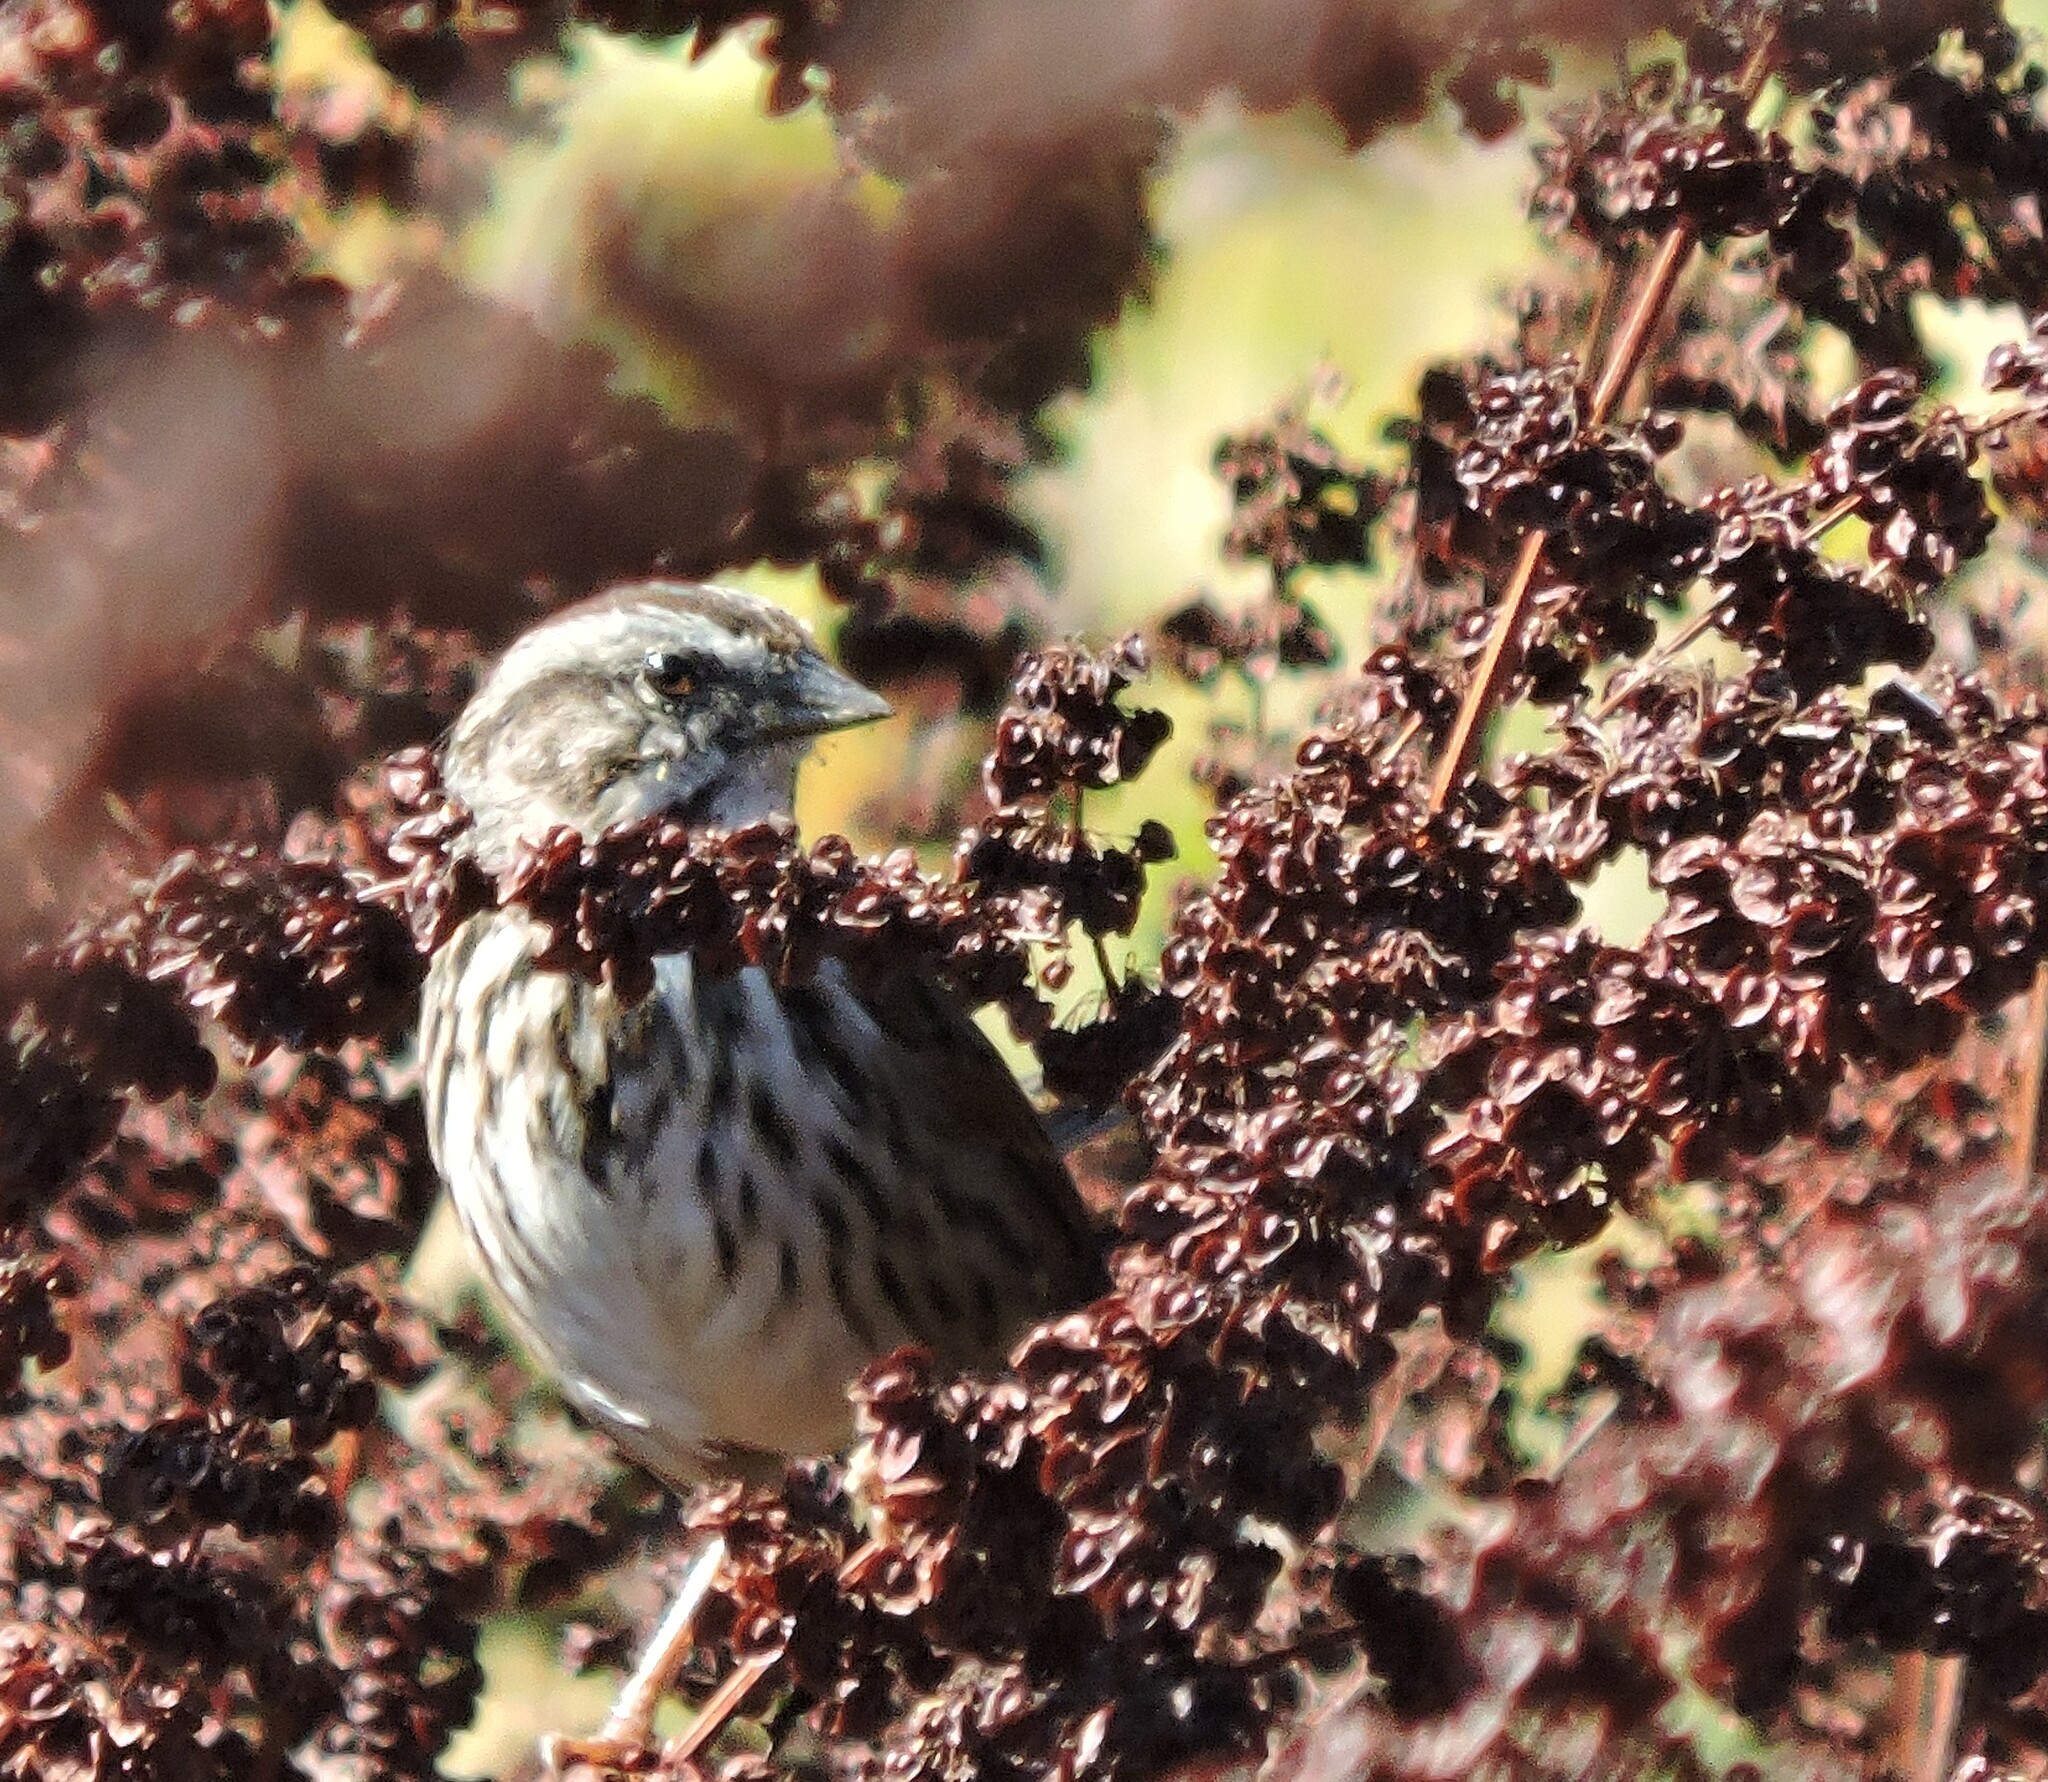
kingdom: Animalia
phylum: Chordata
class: Aves
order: Passeriformes
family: Passerellidae
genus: Melospiza
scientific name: Melospiza melodia
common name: Song sparrow
